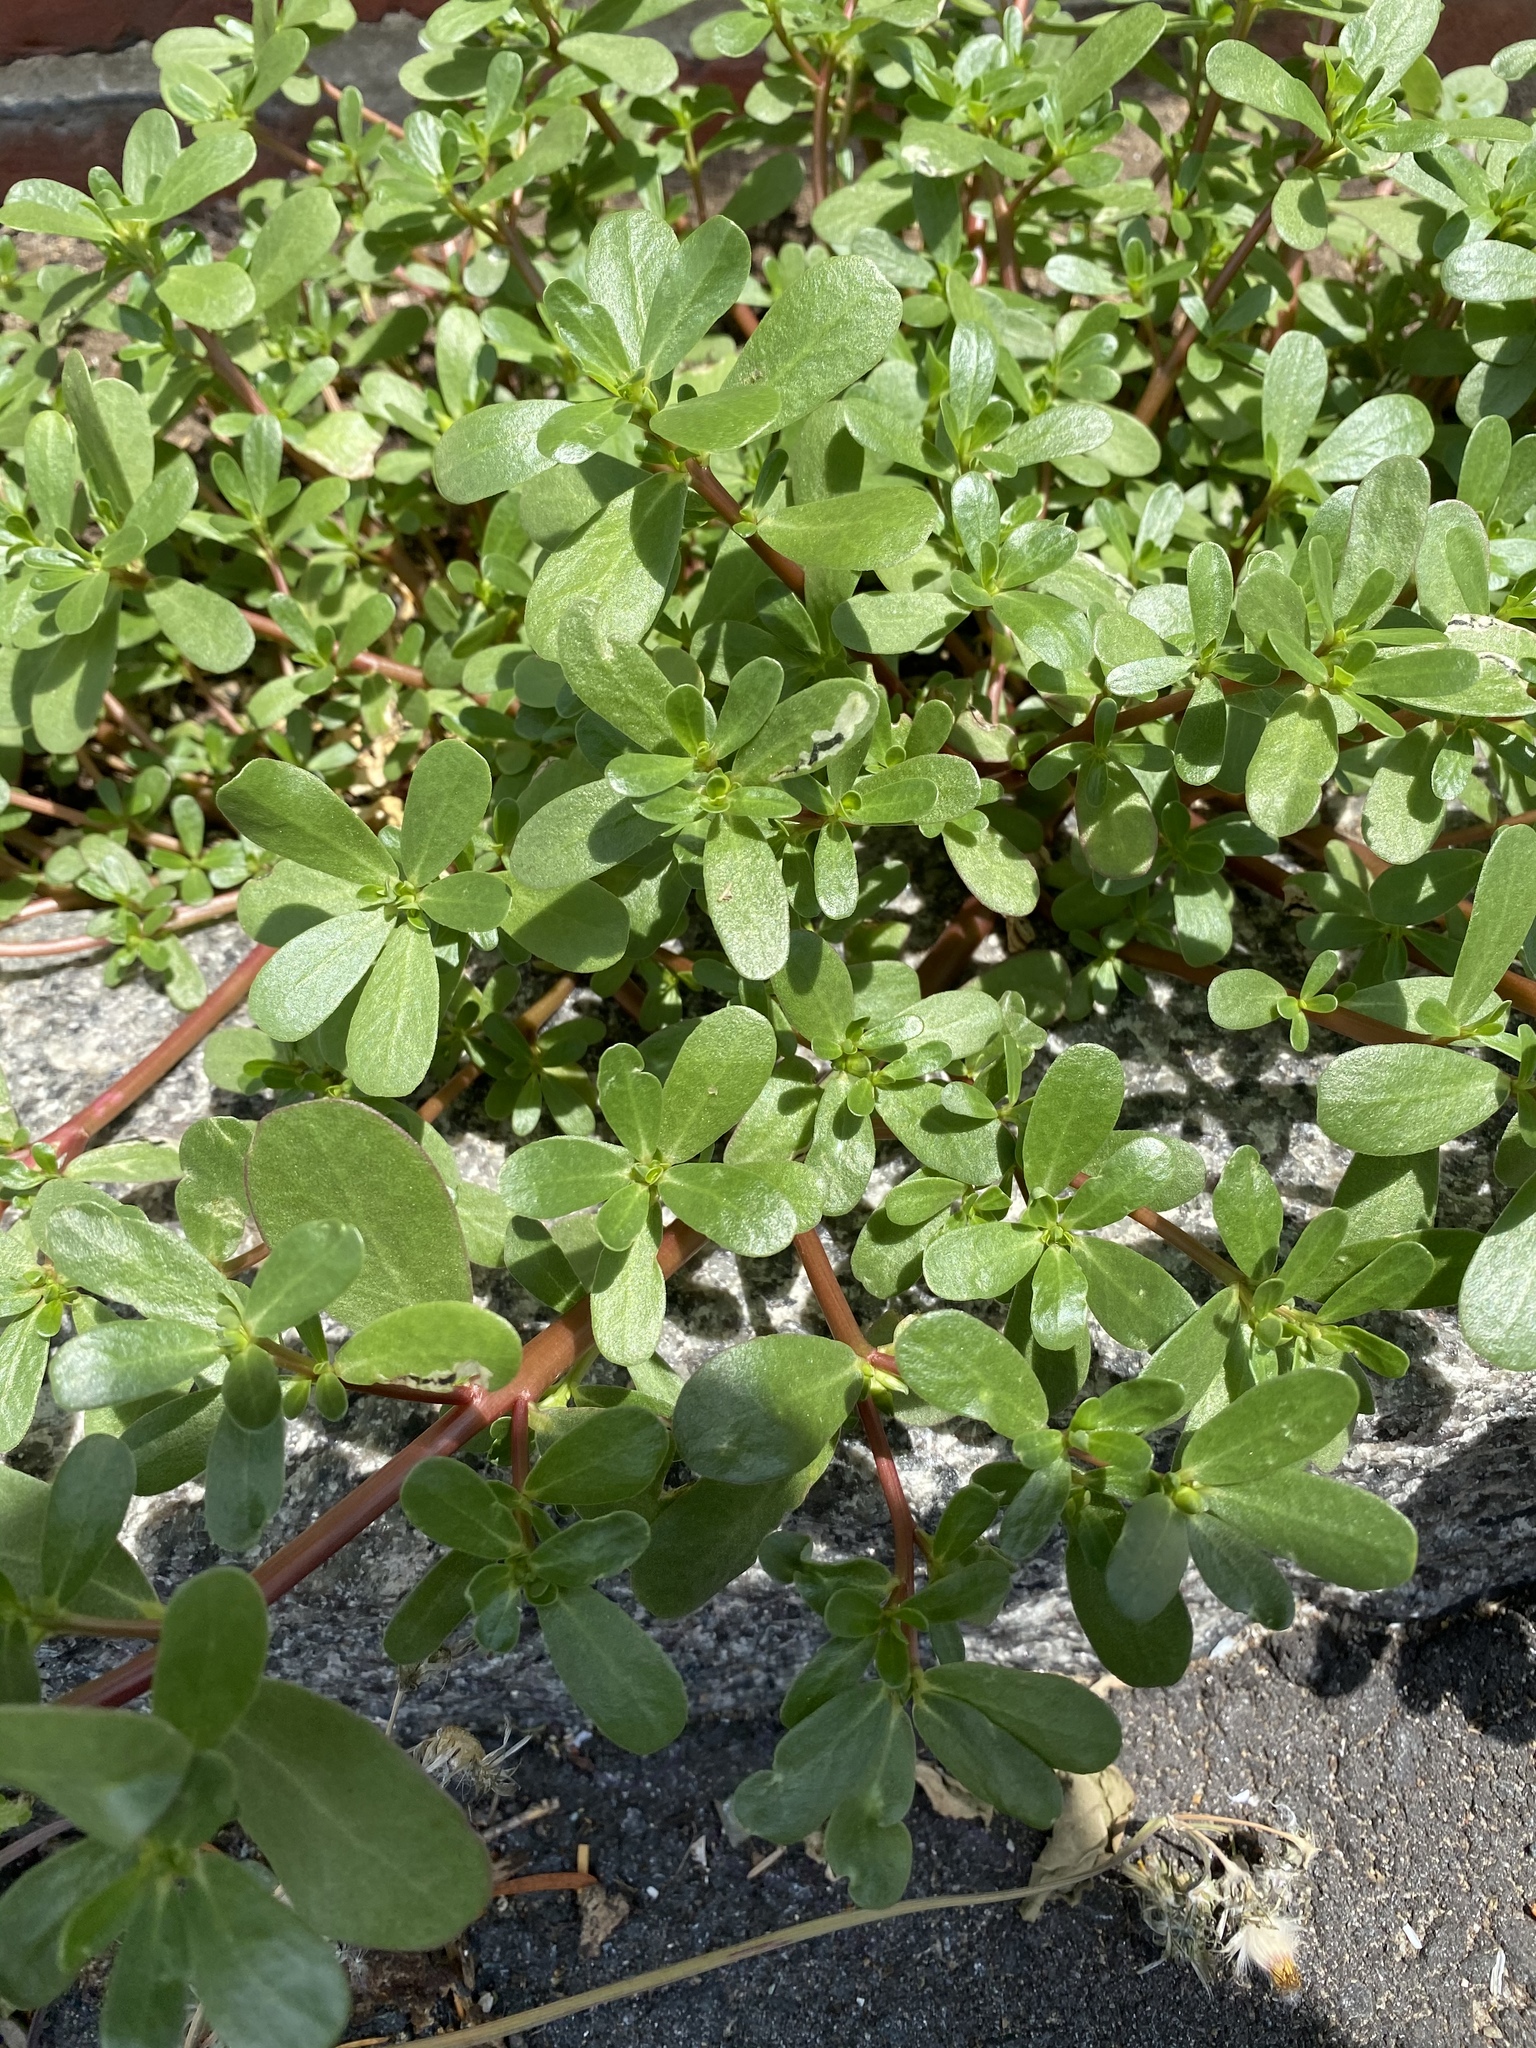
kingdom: Plantae
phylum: Tracheophyta
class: Magnoliopsida
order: Caryophyllales
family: Portulacaceae
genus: Portulaca
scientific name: Portulaca oleracea
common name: Common purslane
